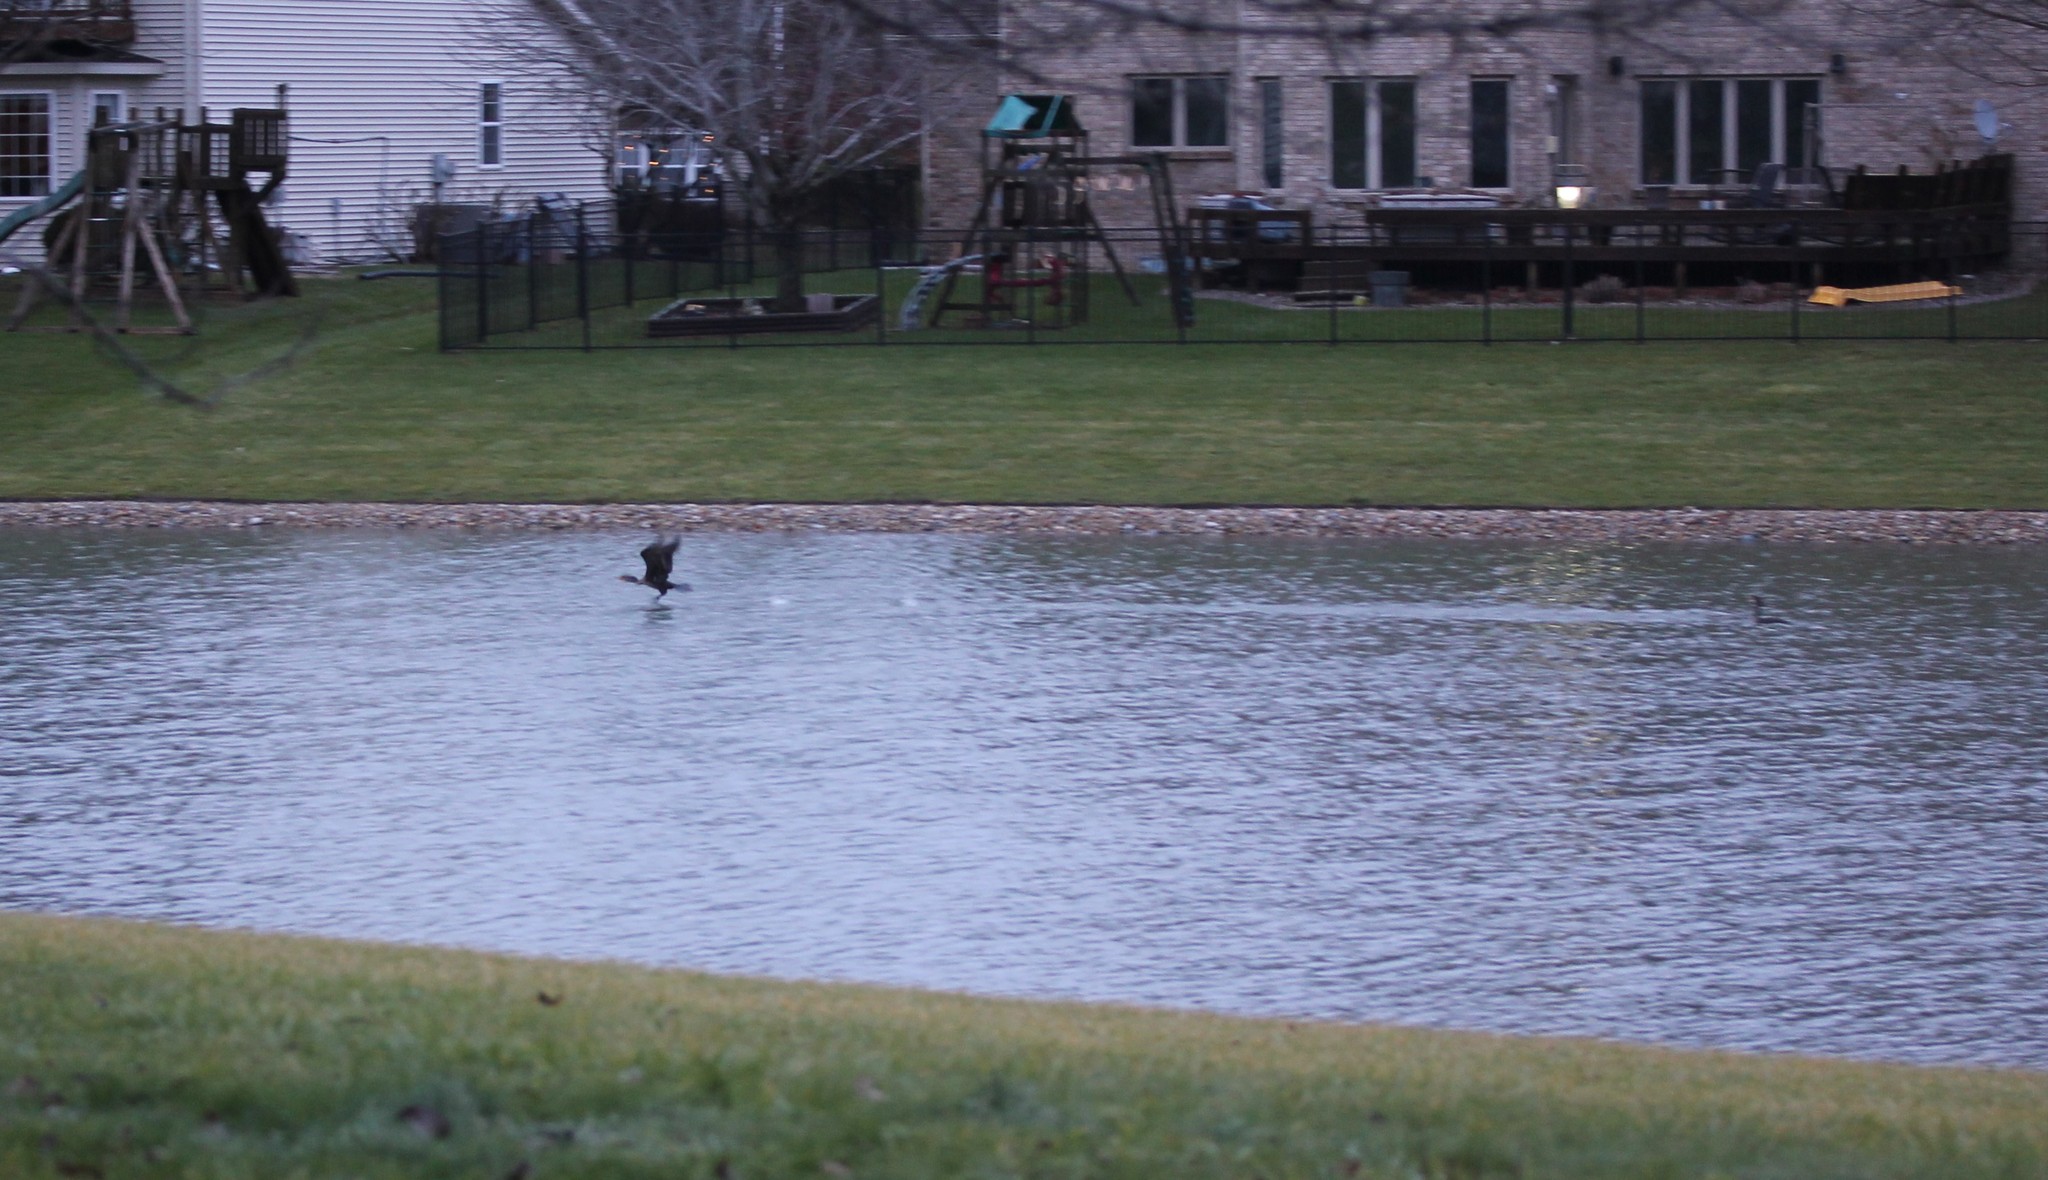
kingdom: Animalia
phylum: Chordata
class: Aves
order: Suliformes
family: Phalacrocoracidae
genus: Phalacrocorax
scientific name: Phalacrocorax auritus
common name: Double-crested cormorant
